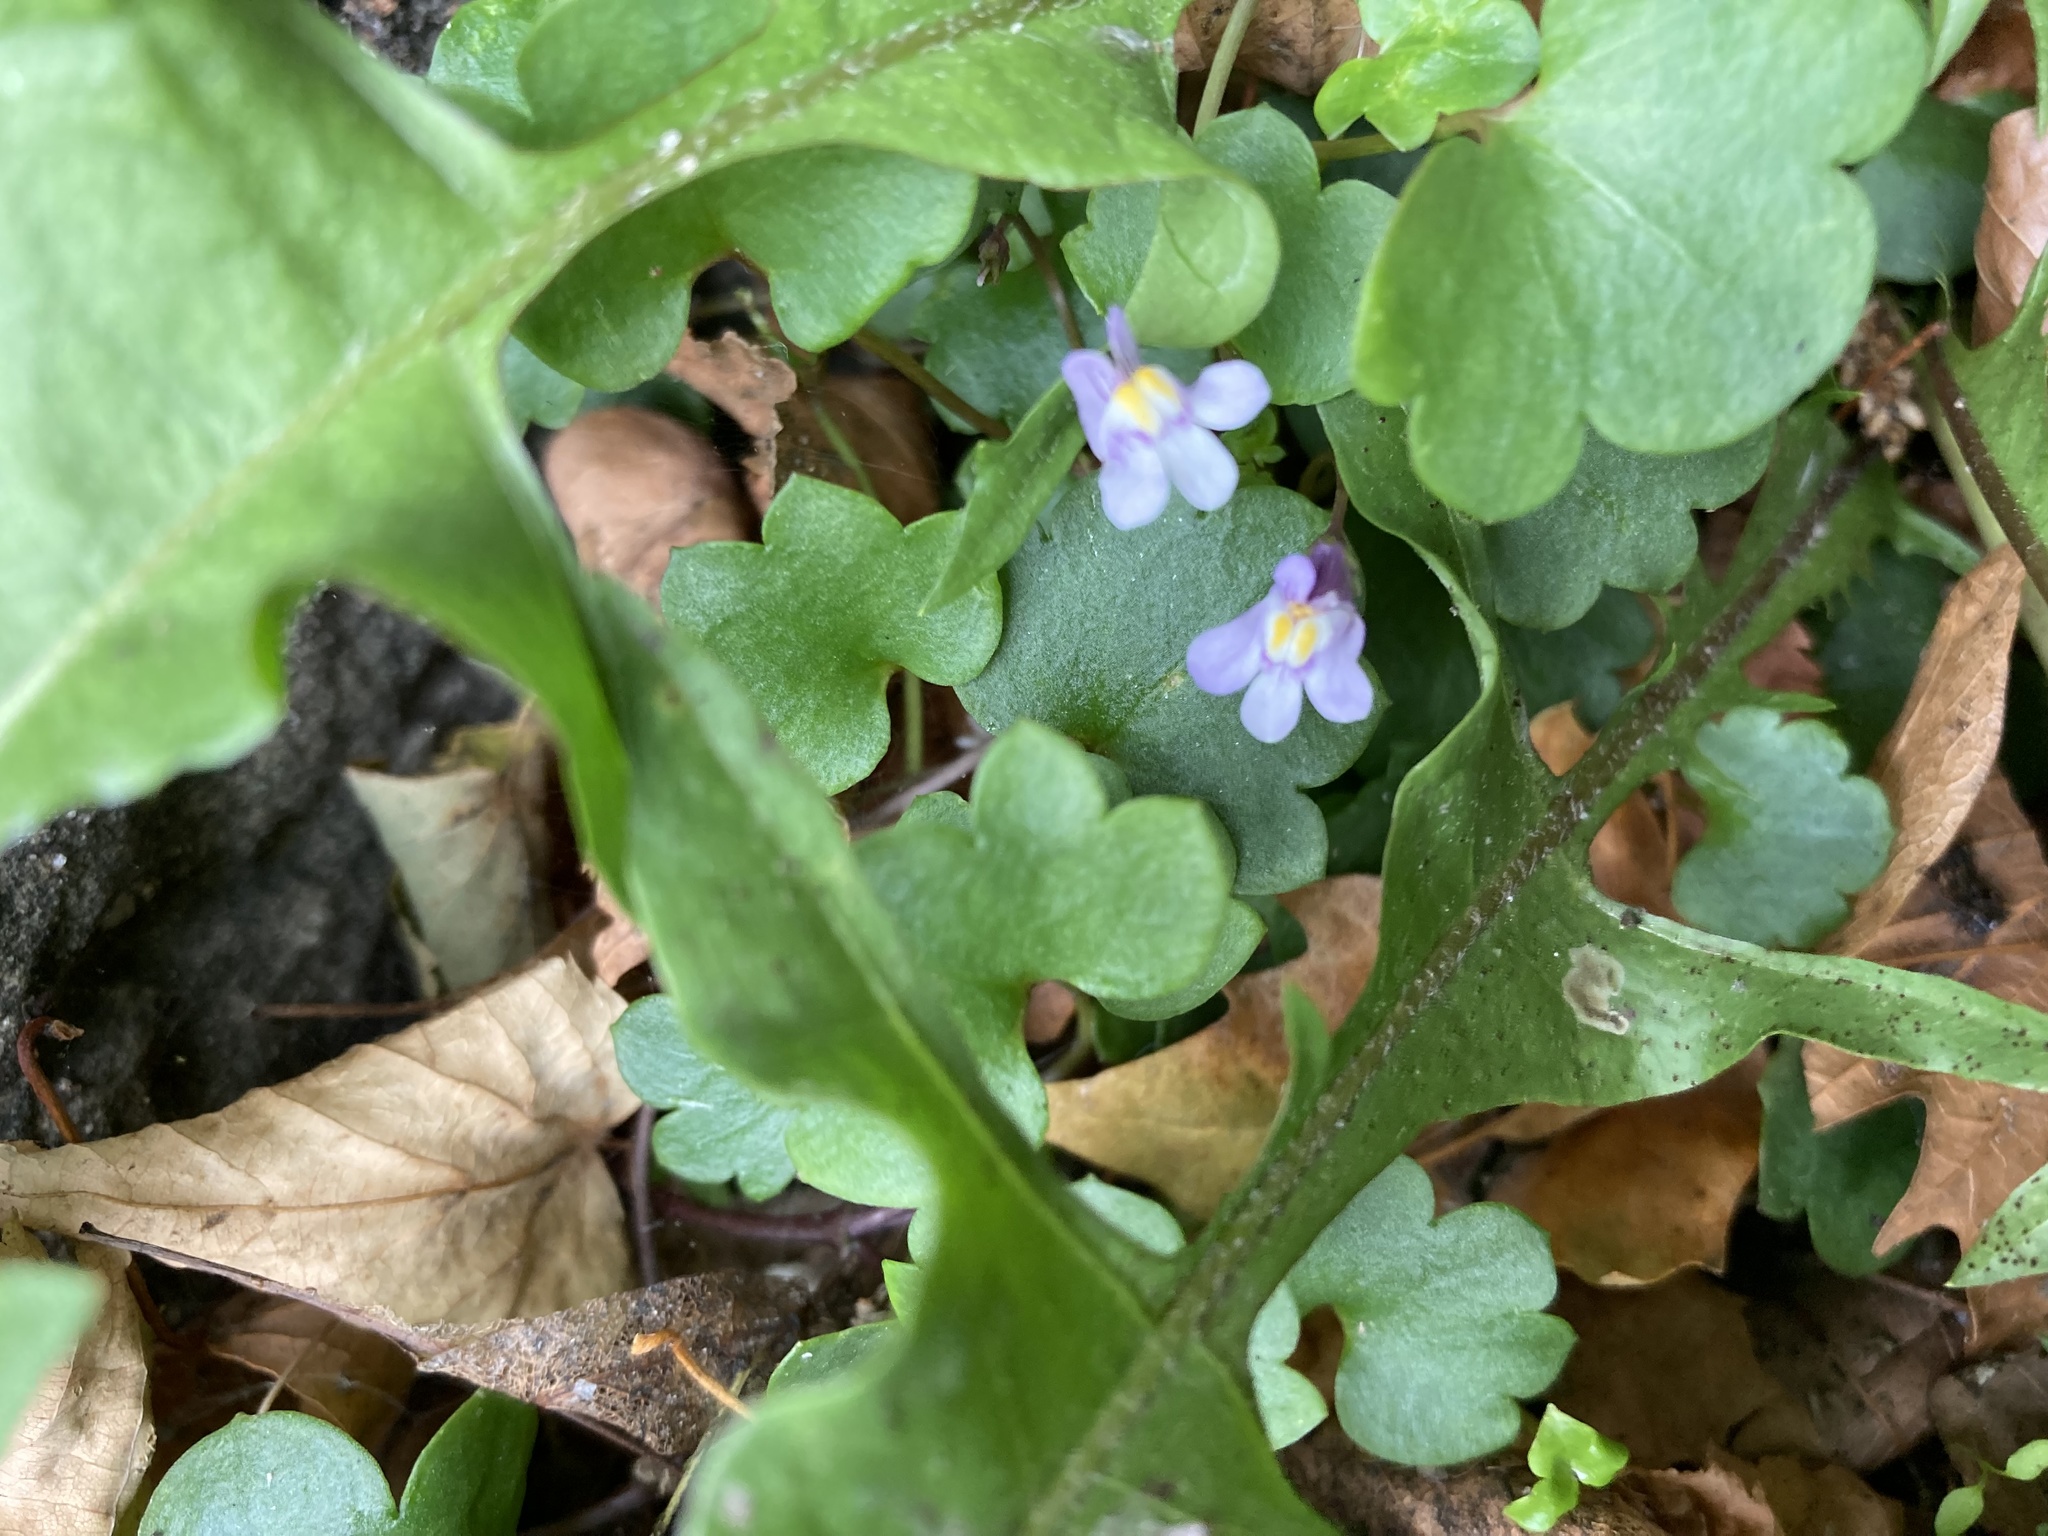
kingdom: Plantae
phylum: Tracheophyta
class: Magnoliopsida
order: Lamiales
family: Plantaginaceae
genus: Cymbalaria
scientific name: Cymbalaria muralis
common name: Ivy-leaved toadflax
